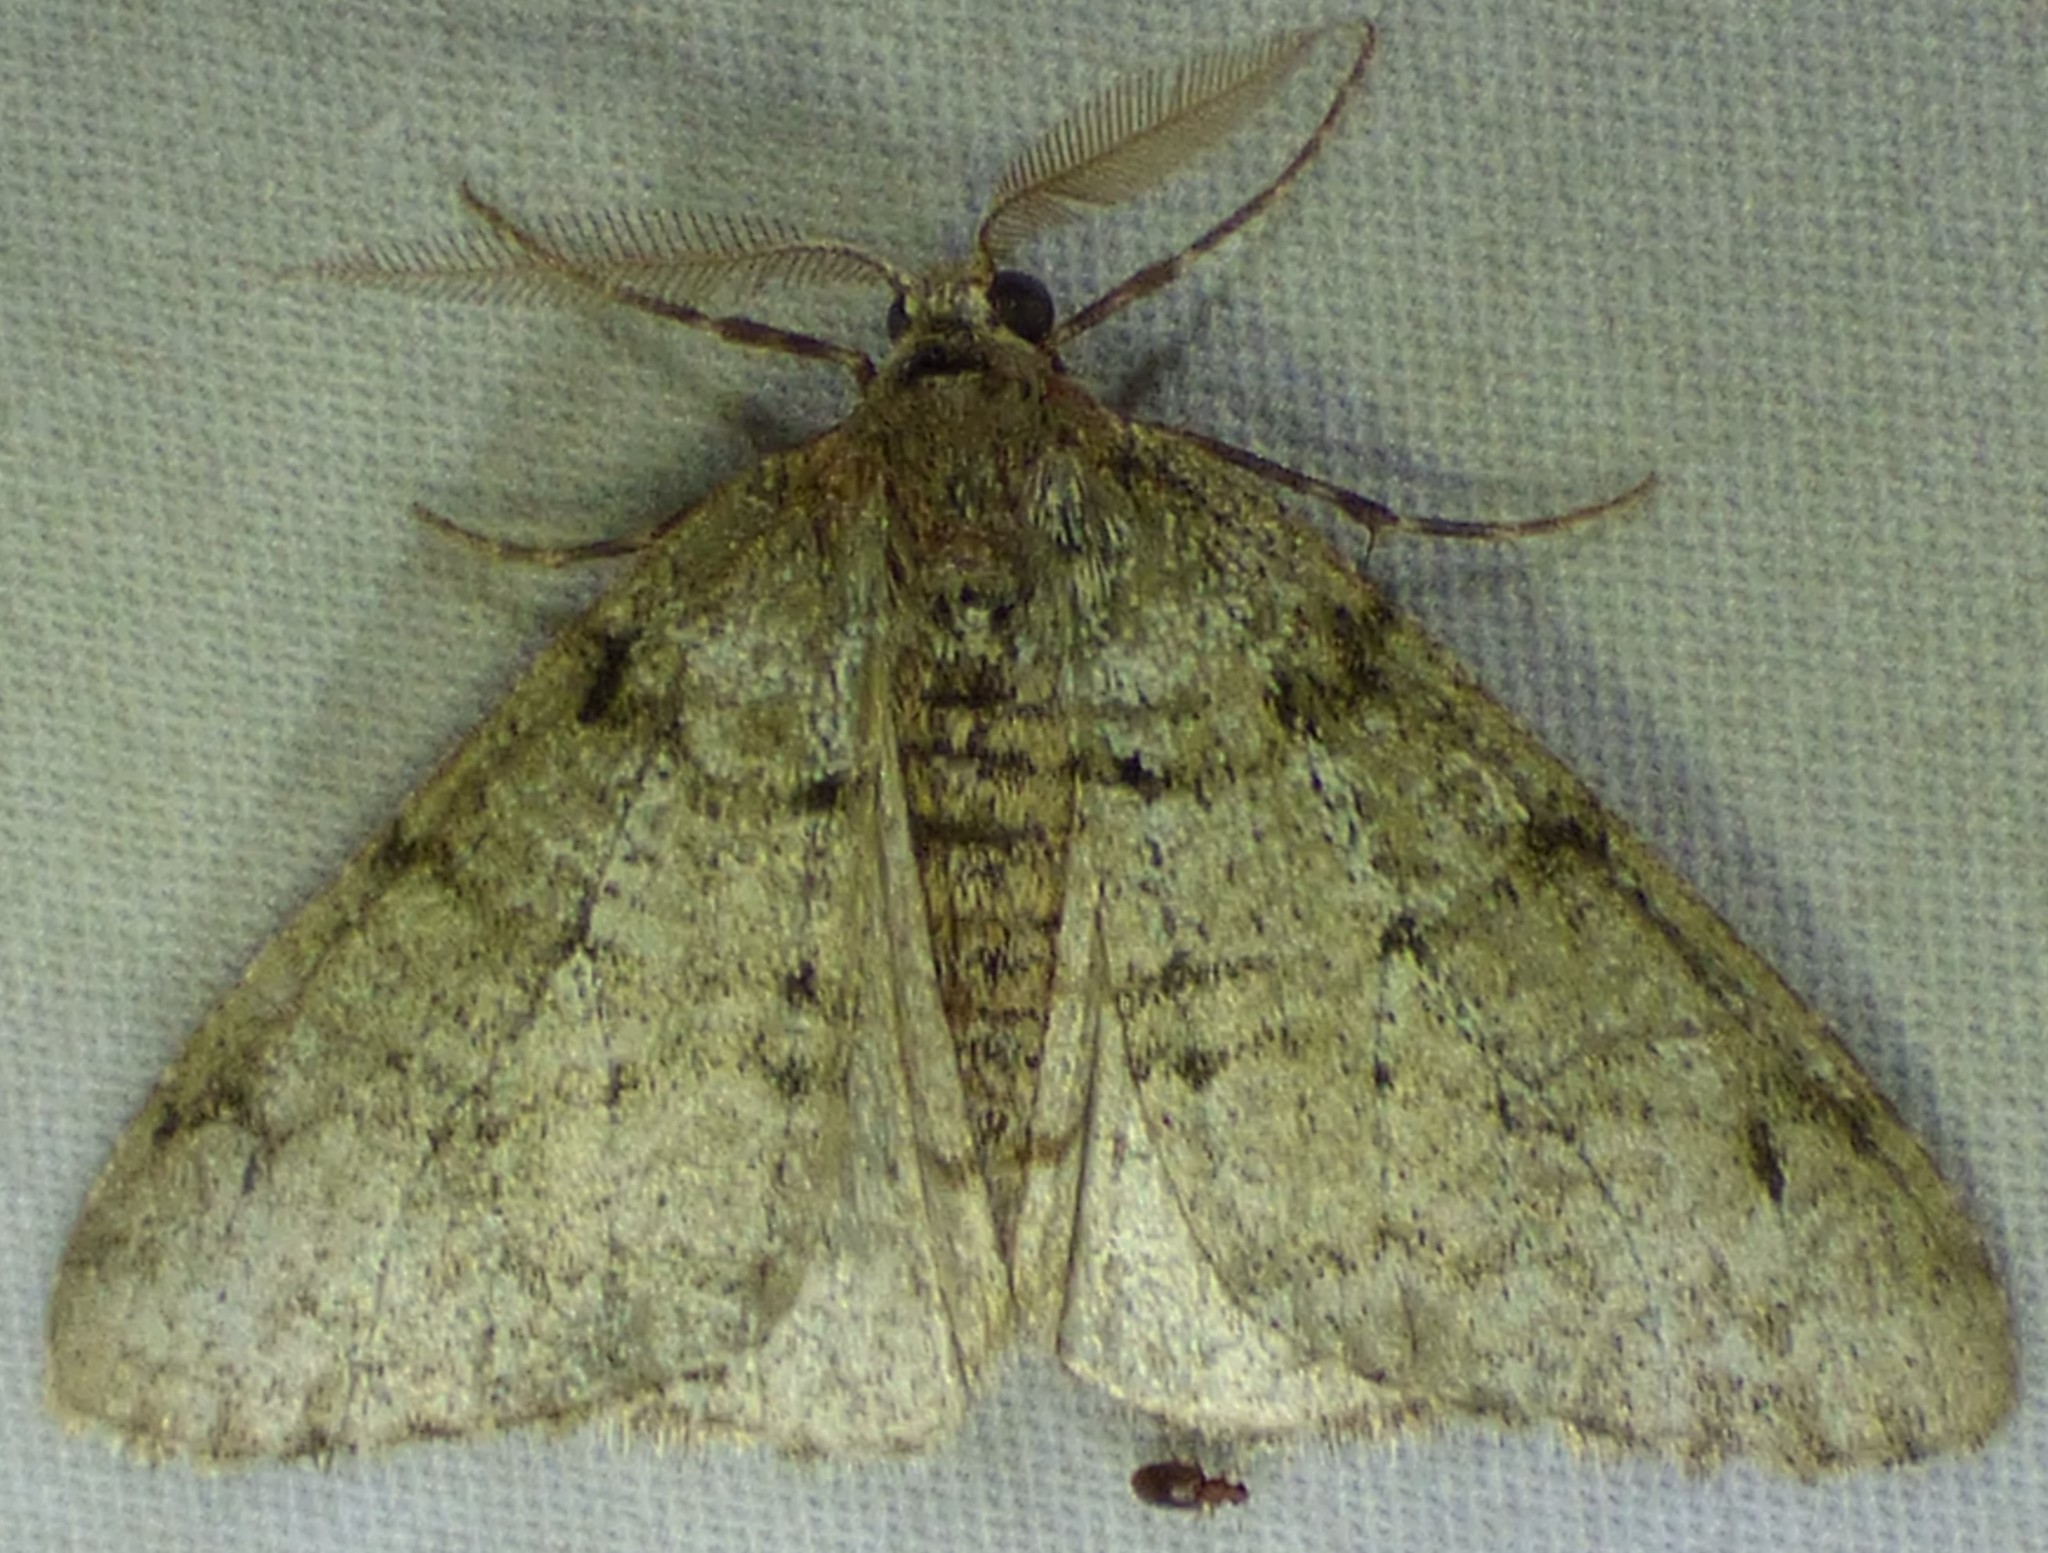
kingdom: Animalia
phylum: Arthropoda
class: Insecta
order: Lepidoptera
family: Geometridae
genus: Phigalia
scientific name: Phigalia strigataria
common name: Small phigalia
